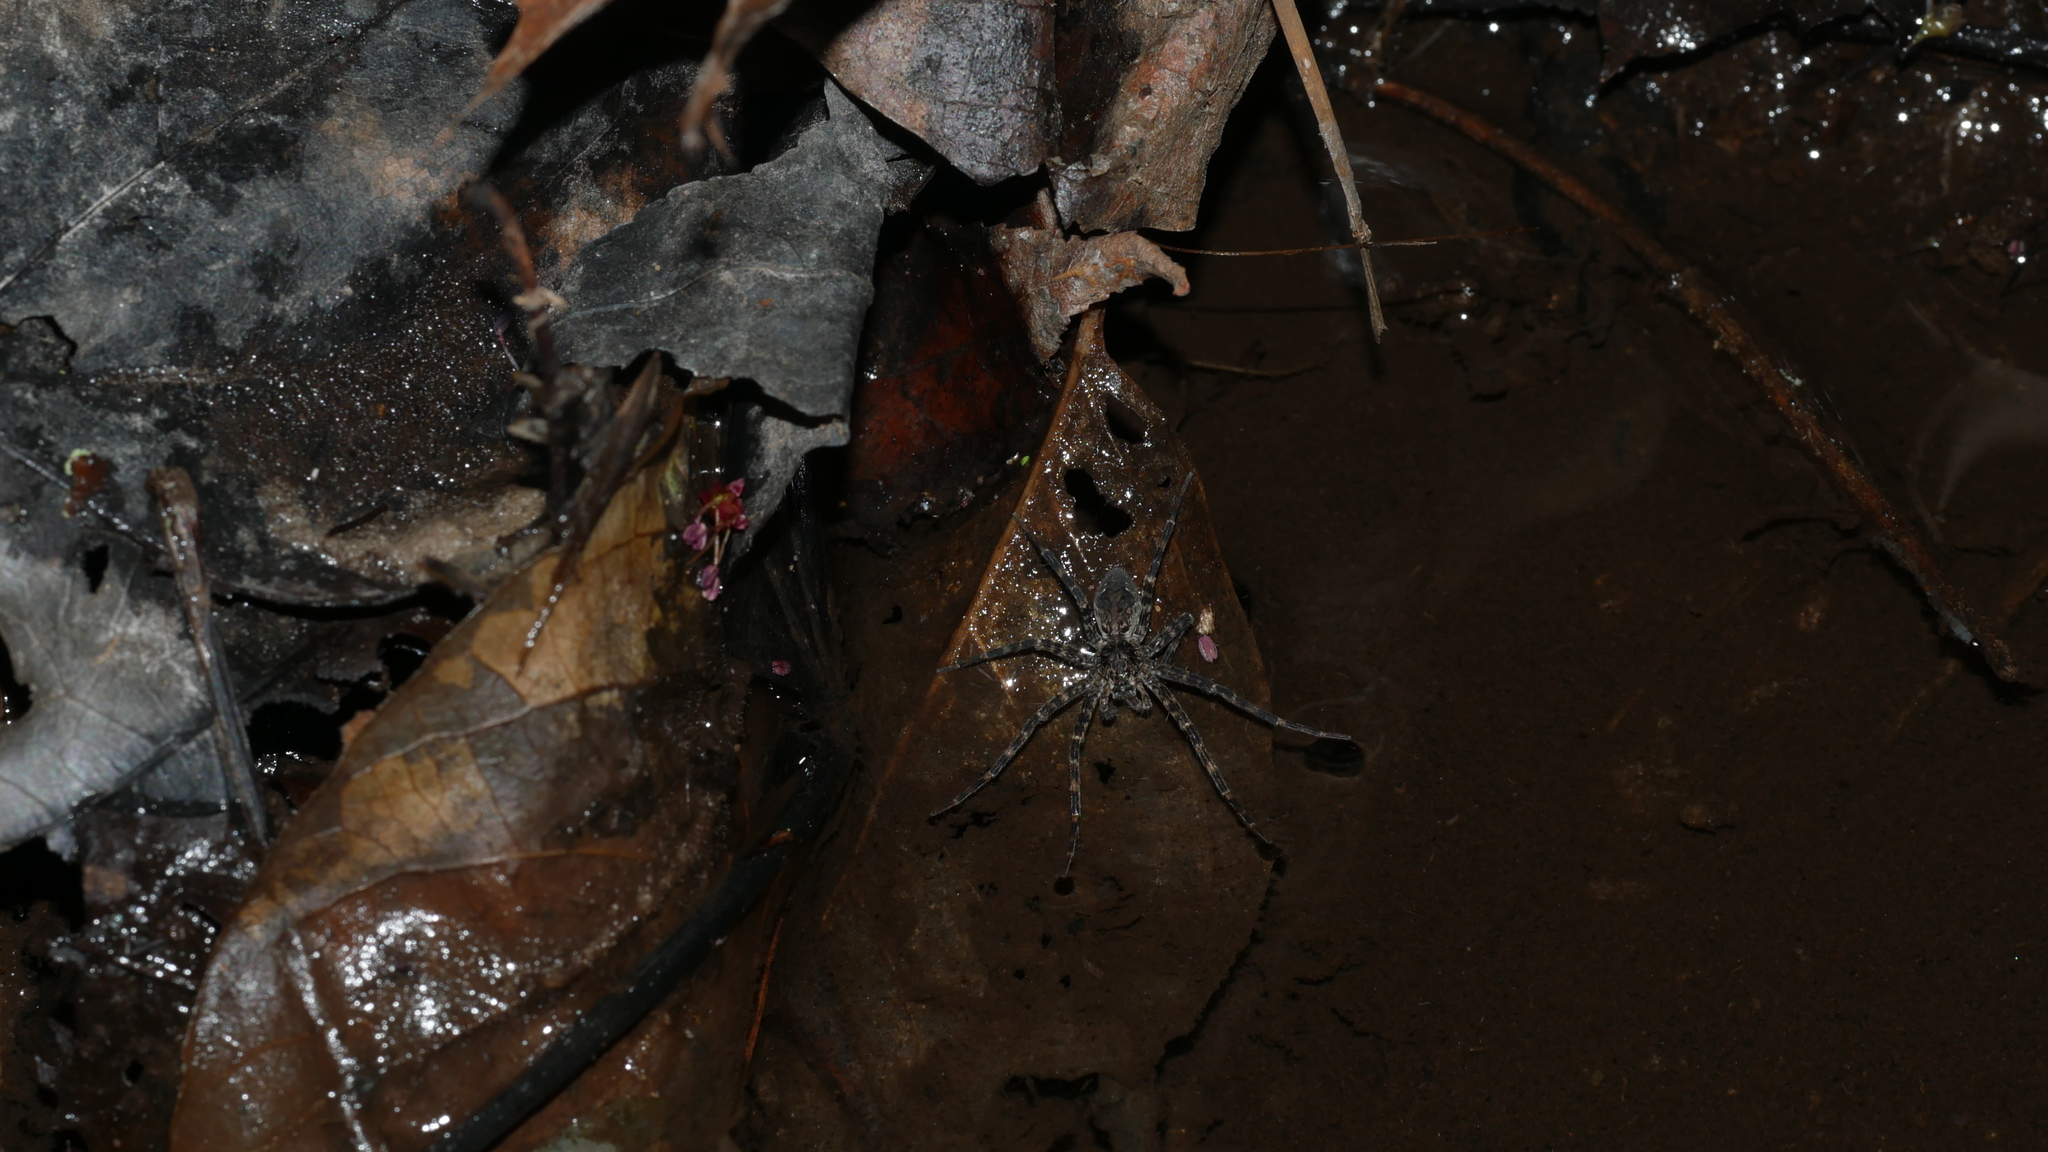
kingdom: Animalia
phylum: Arthropoda
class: Arachnida
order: Araneae
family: Pisauridae
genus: Dolomedes
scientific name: Dolomedes tenebrosus
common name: Dark fishing spider
